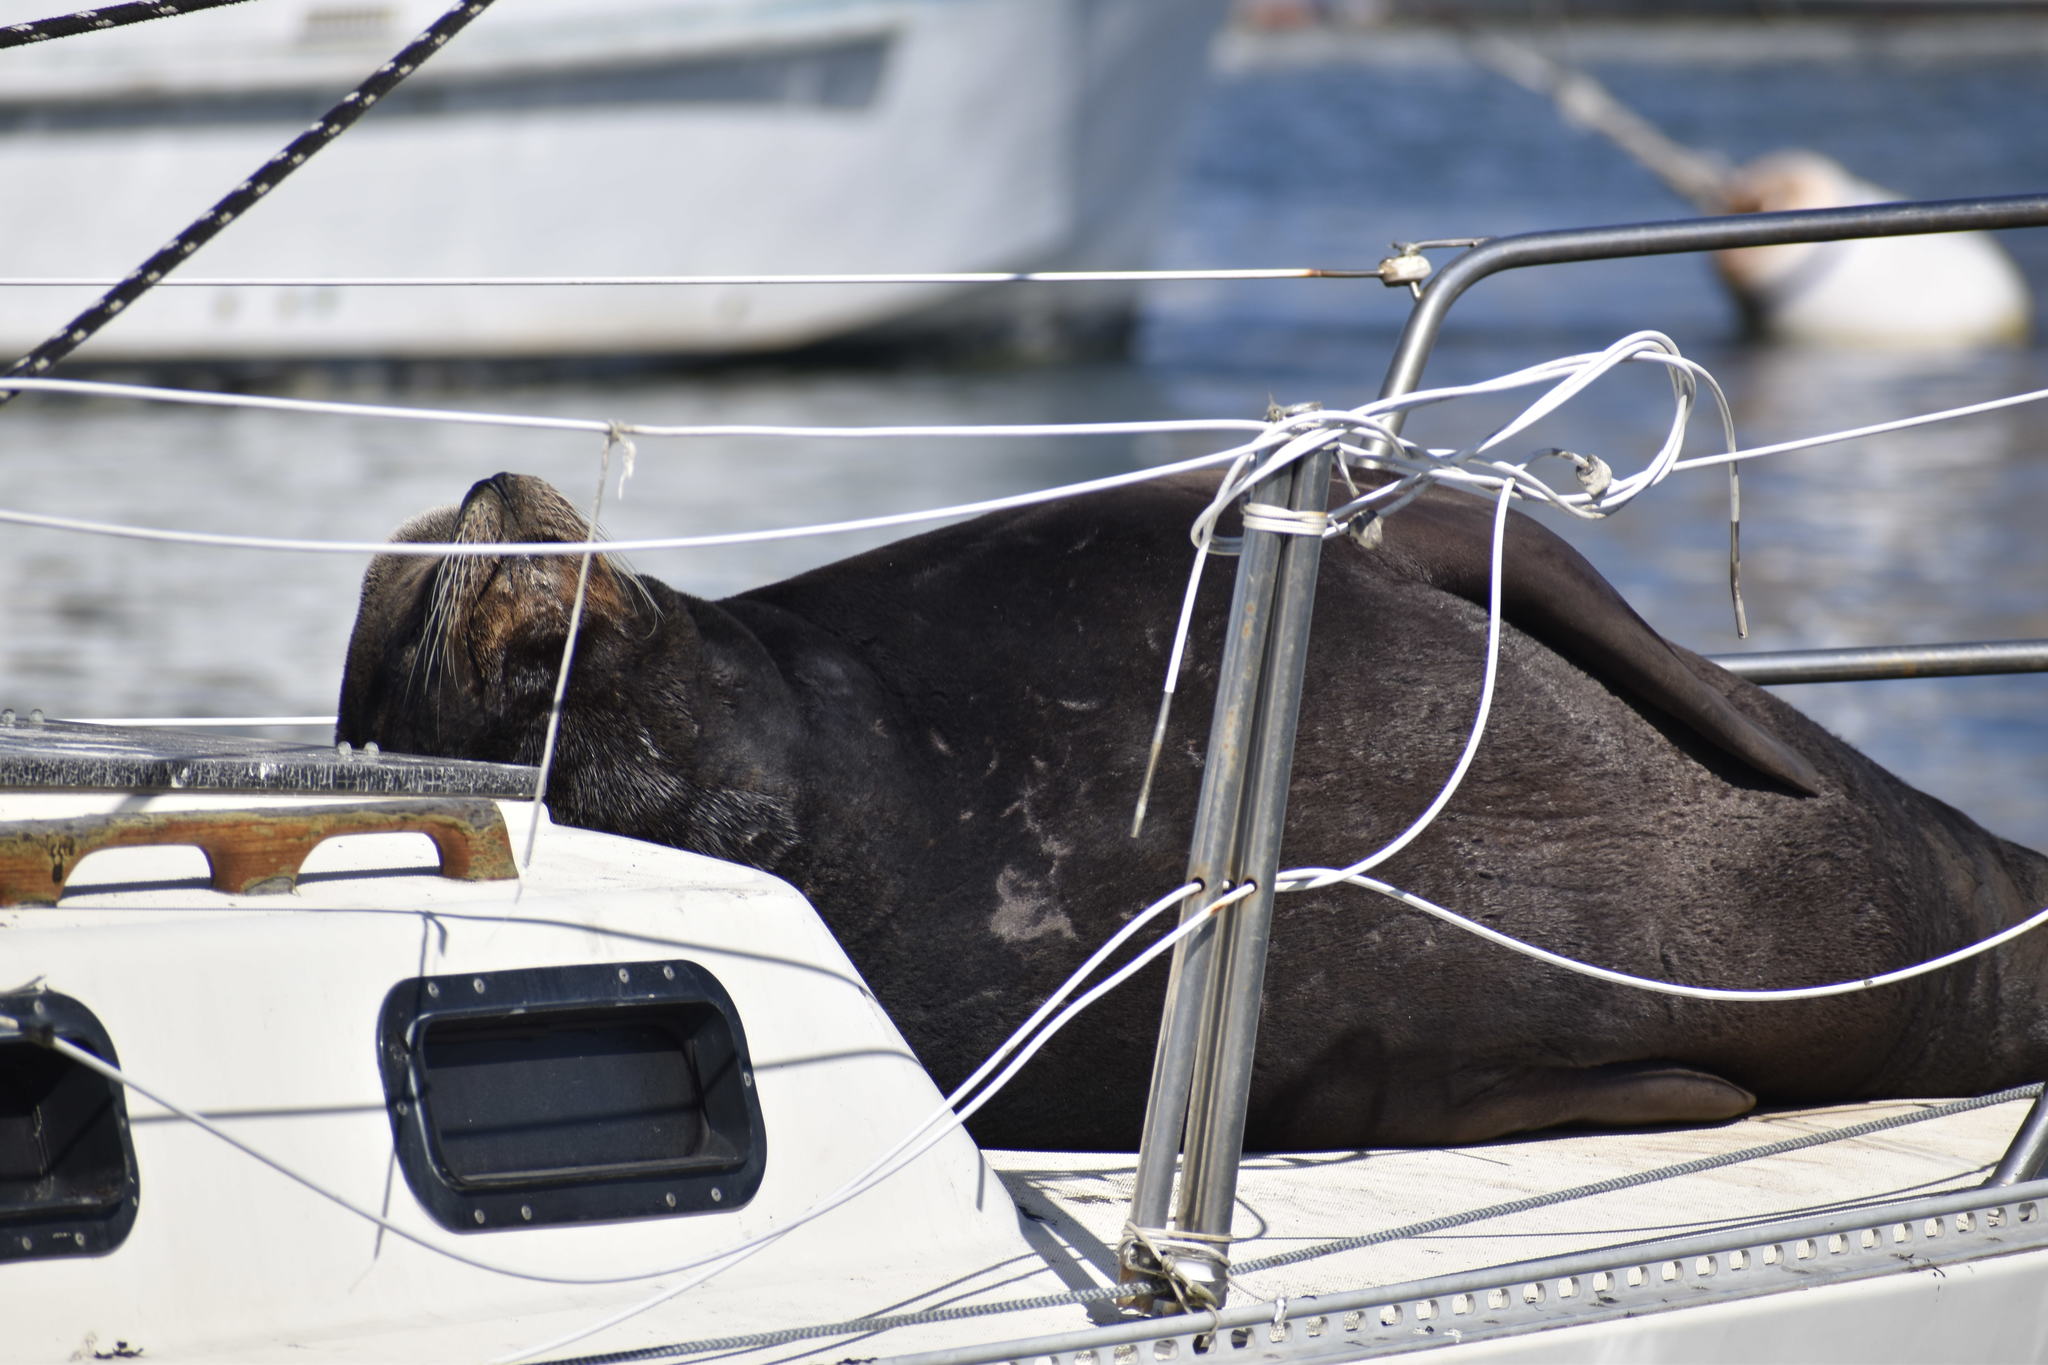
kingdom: Animalia
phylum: Chordata
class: Mammalia
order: Carnivora
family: Otariidae
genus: Zalophus
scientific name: Zalophus californianus
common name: California sea lion
